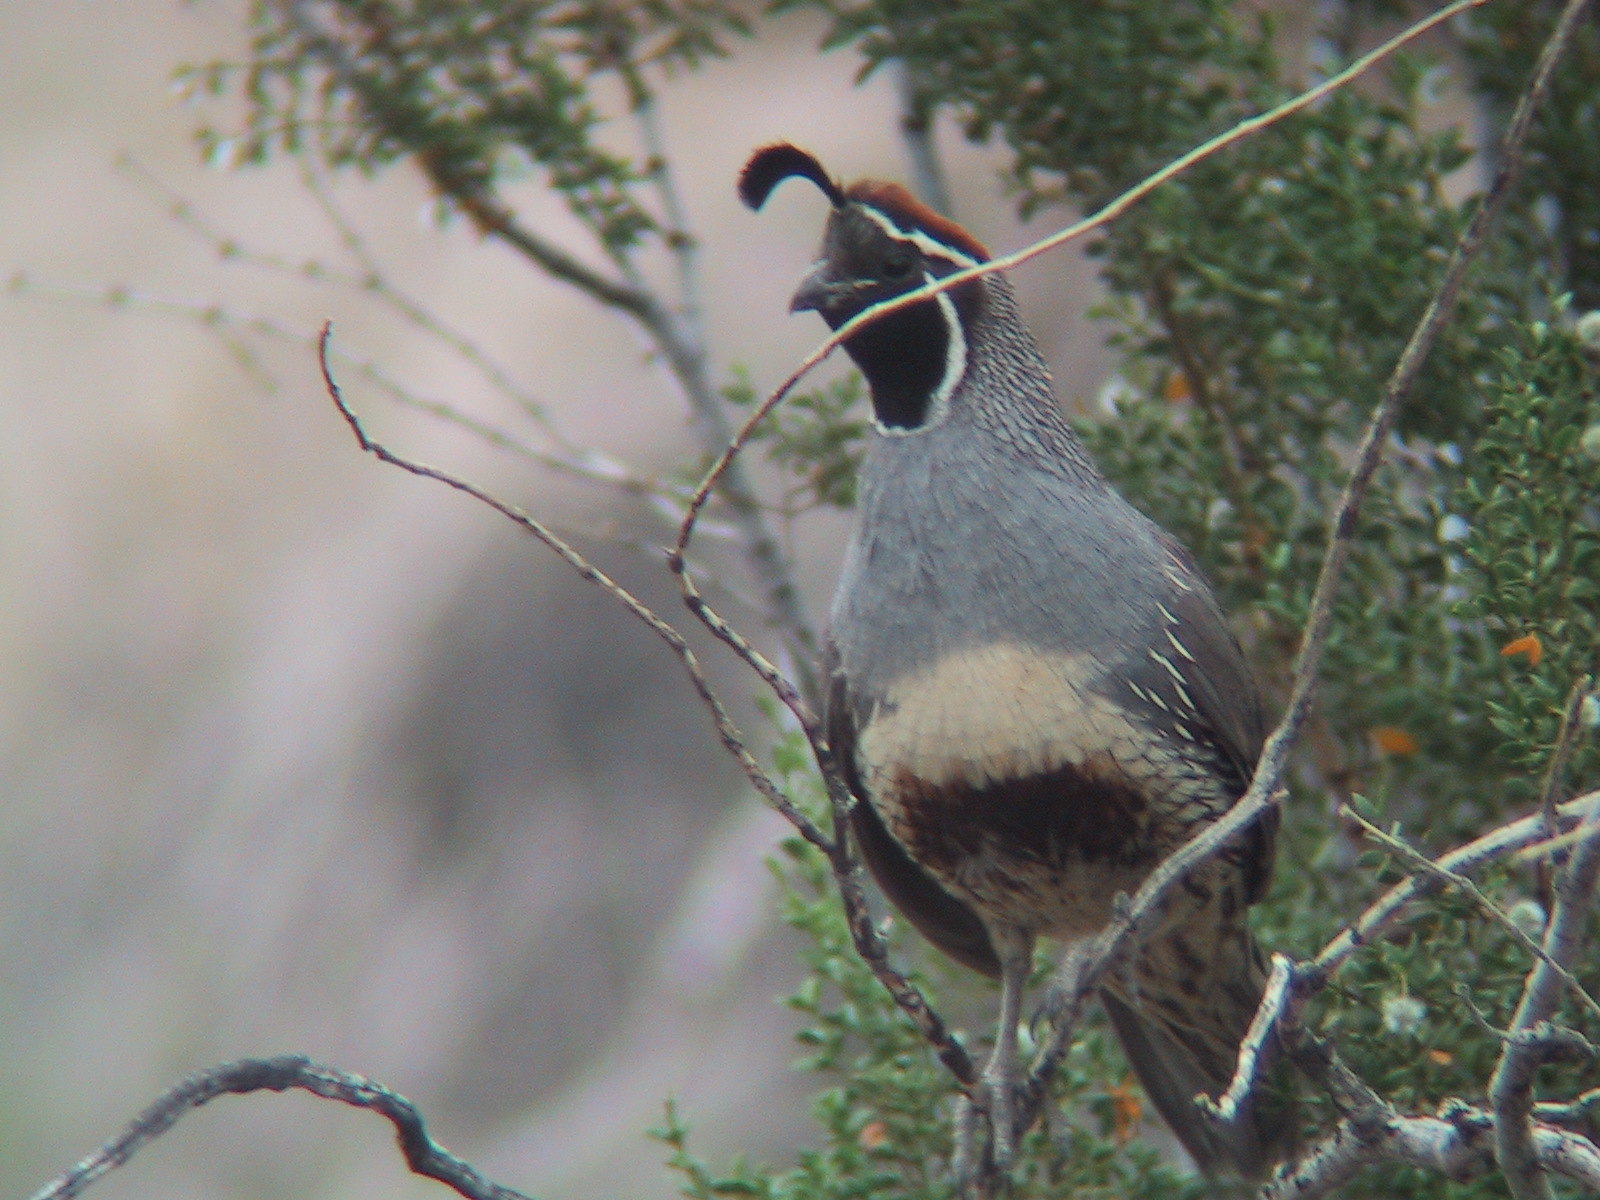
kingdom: Animalia
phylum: Chordata
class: Aves
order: Galliformes
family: Odontophoridae
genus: Callipepla
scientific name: Callipepla gambelii
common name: Gambel's quail
